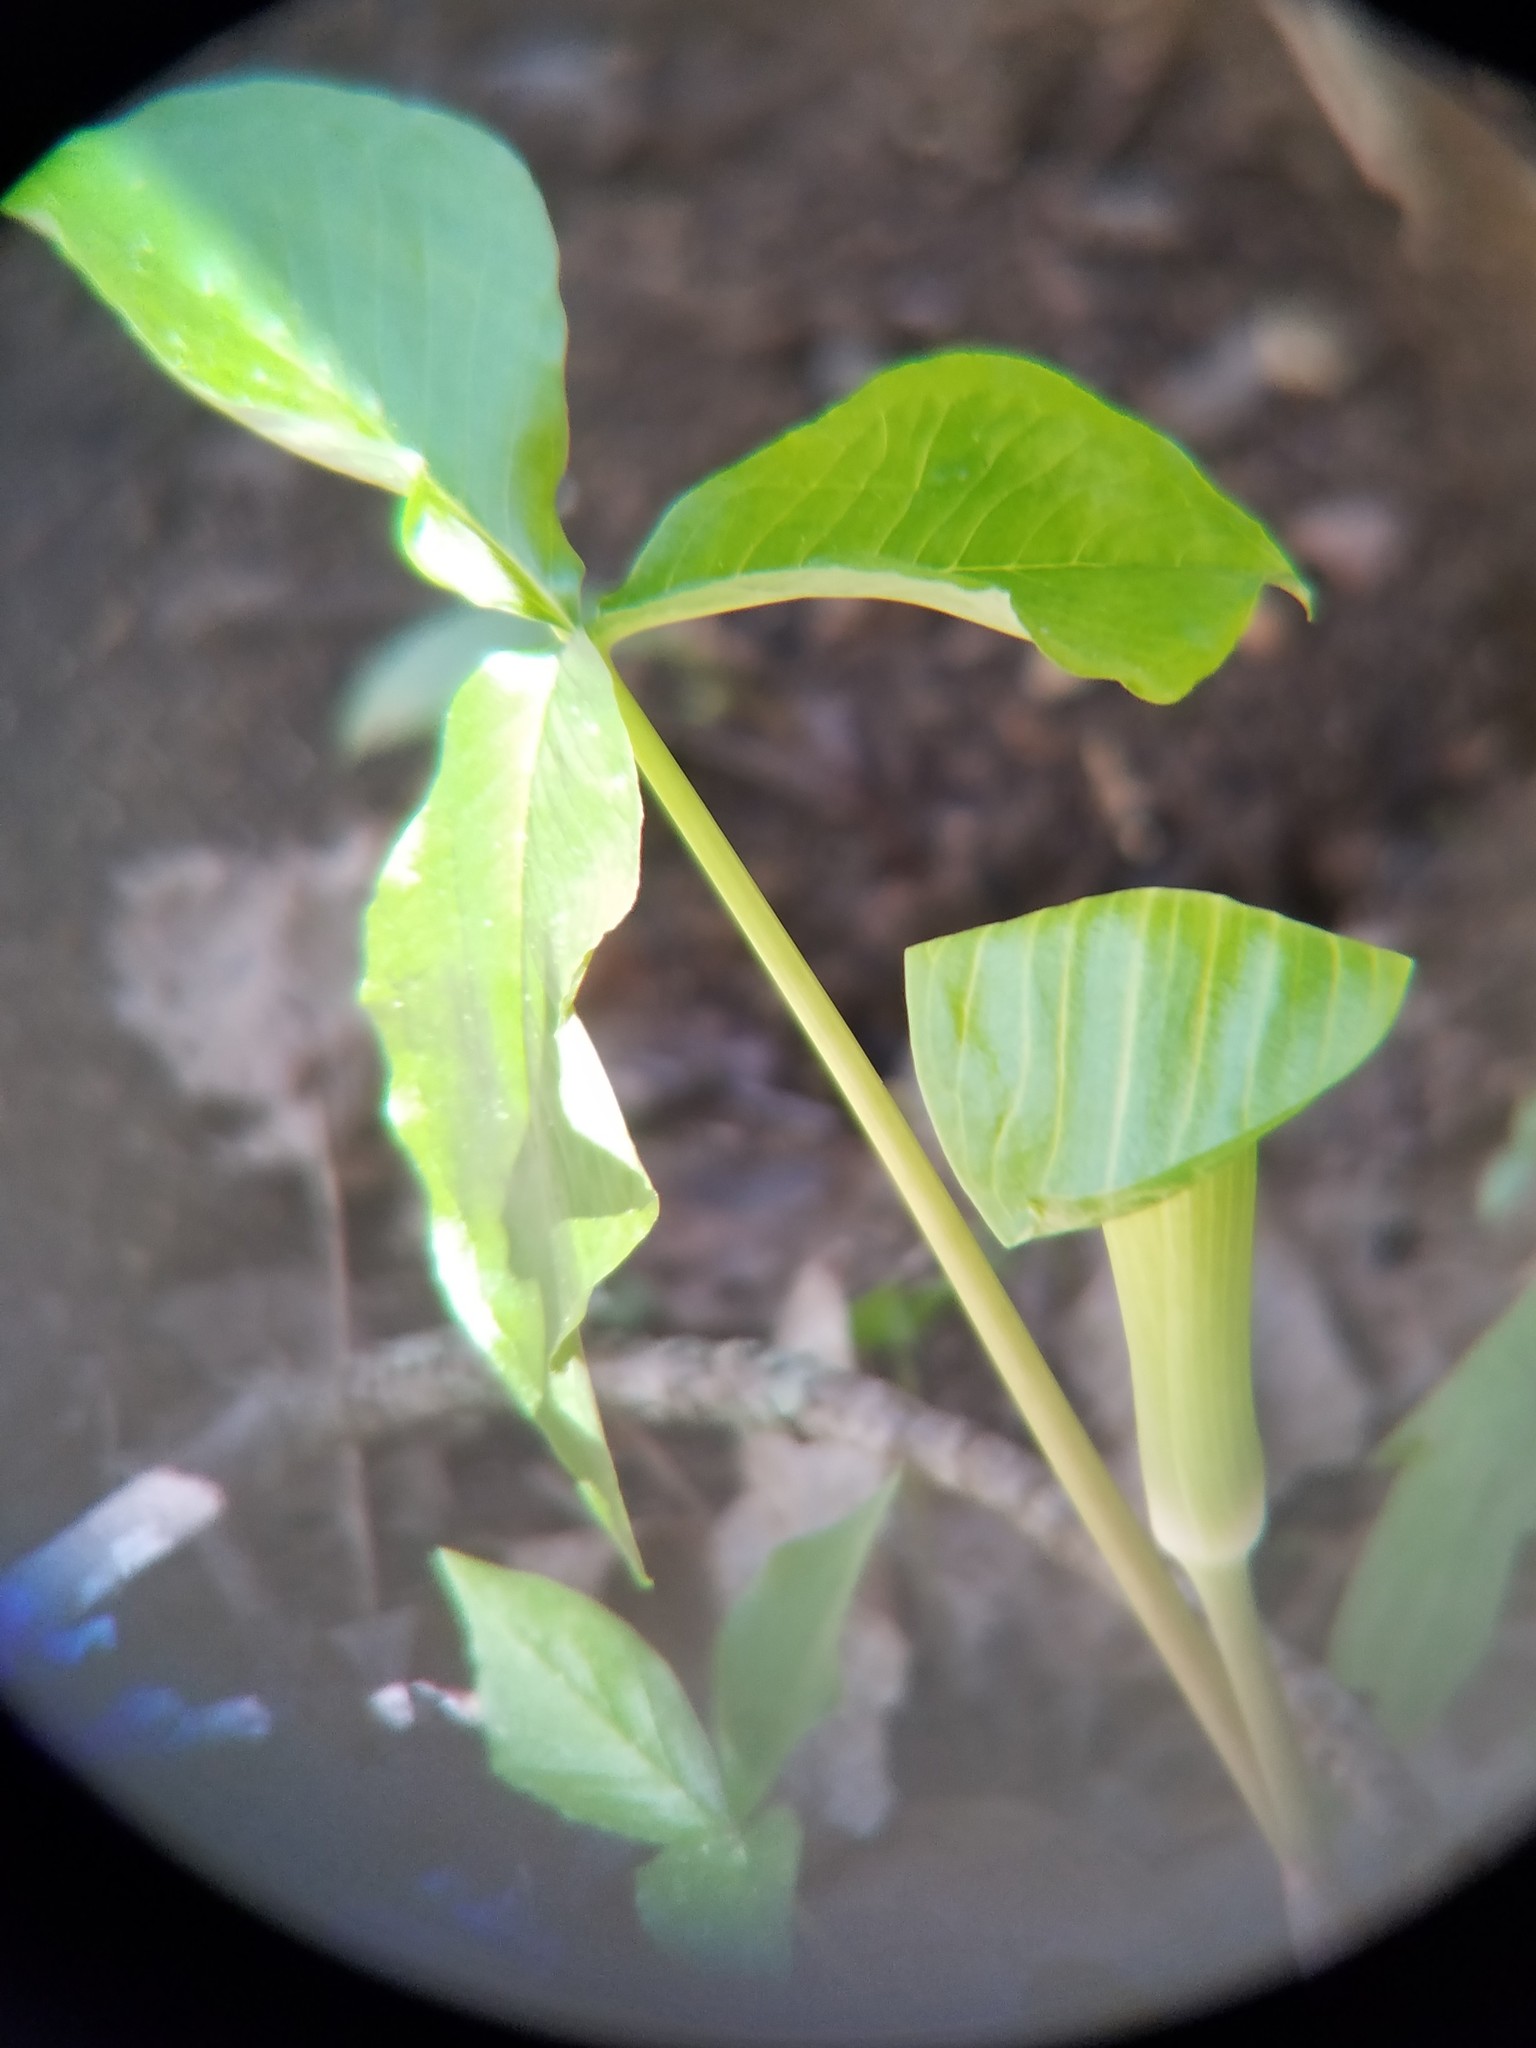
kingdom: Plantae
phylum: Tracheophyta
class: Liliopsida
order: Alismatales
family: Araceae
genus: Arisaema
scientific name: Arisaema triphyllum
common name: Jack-in-the-pulpit
